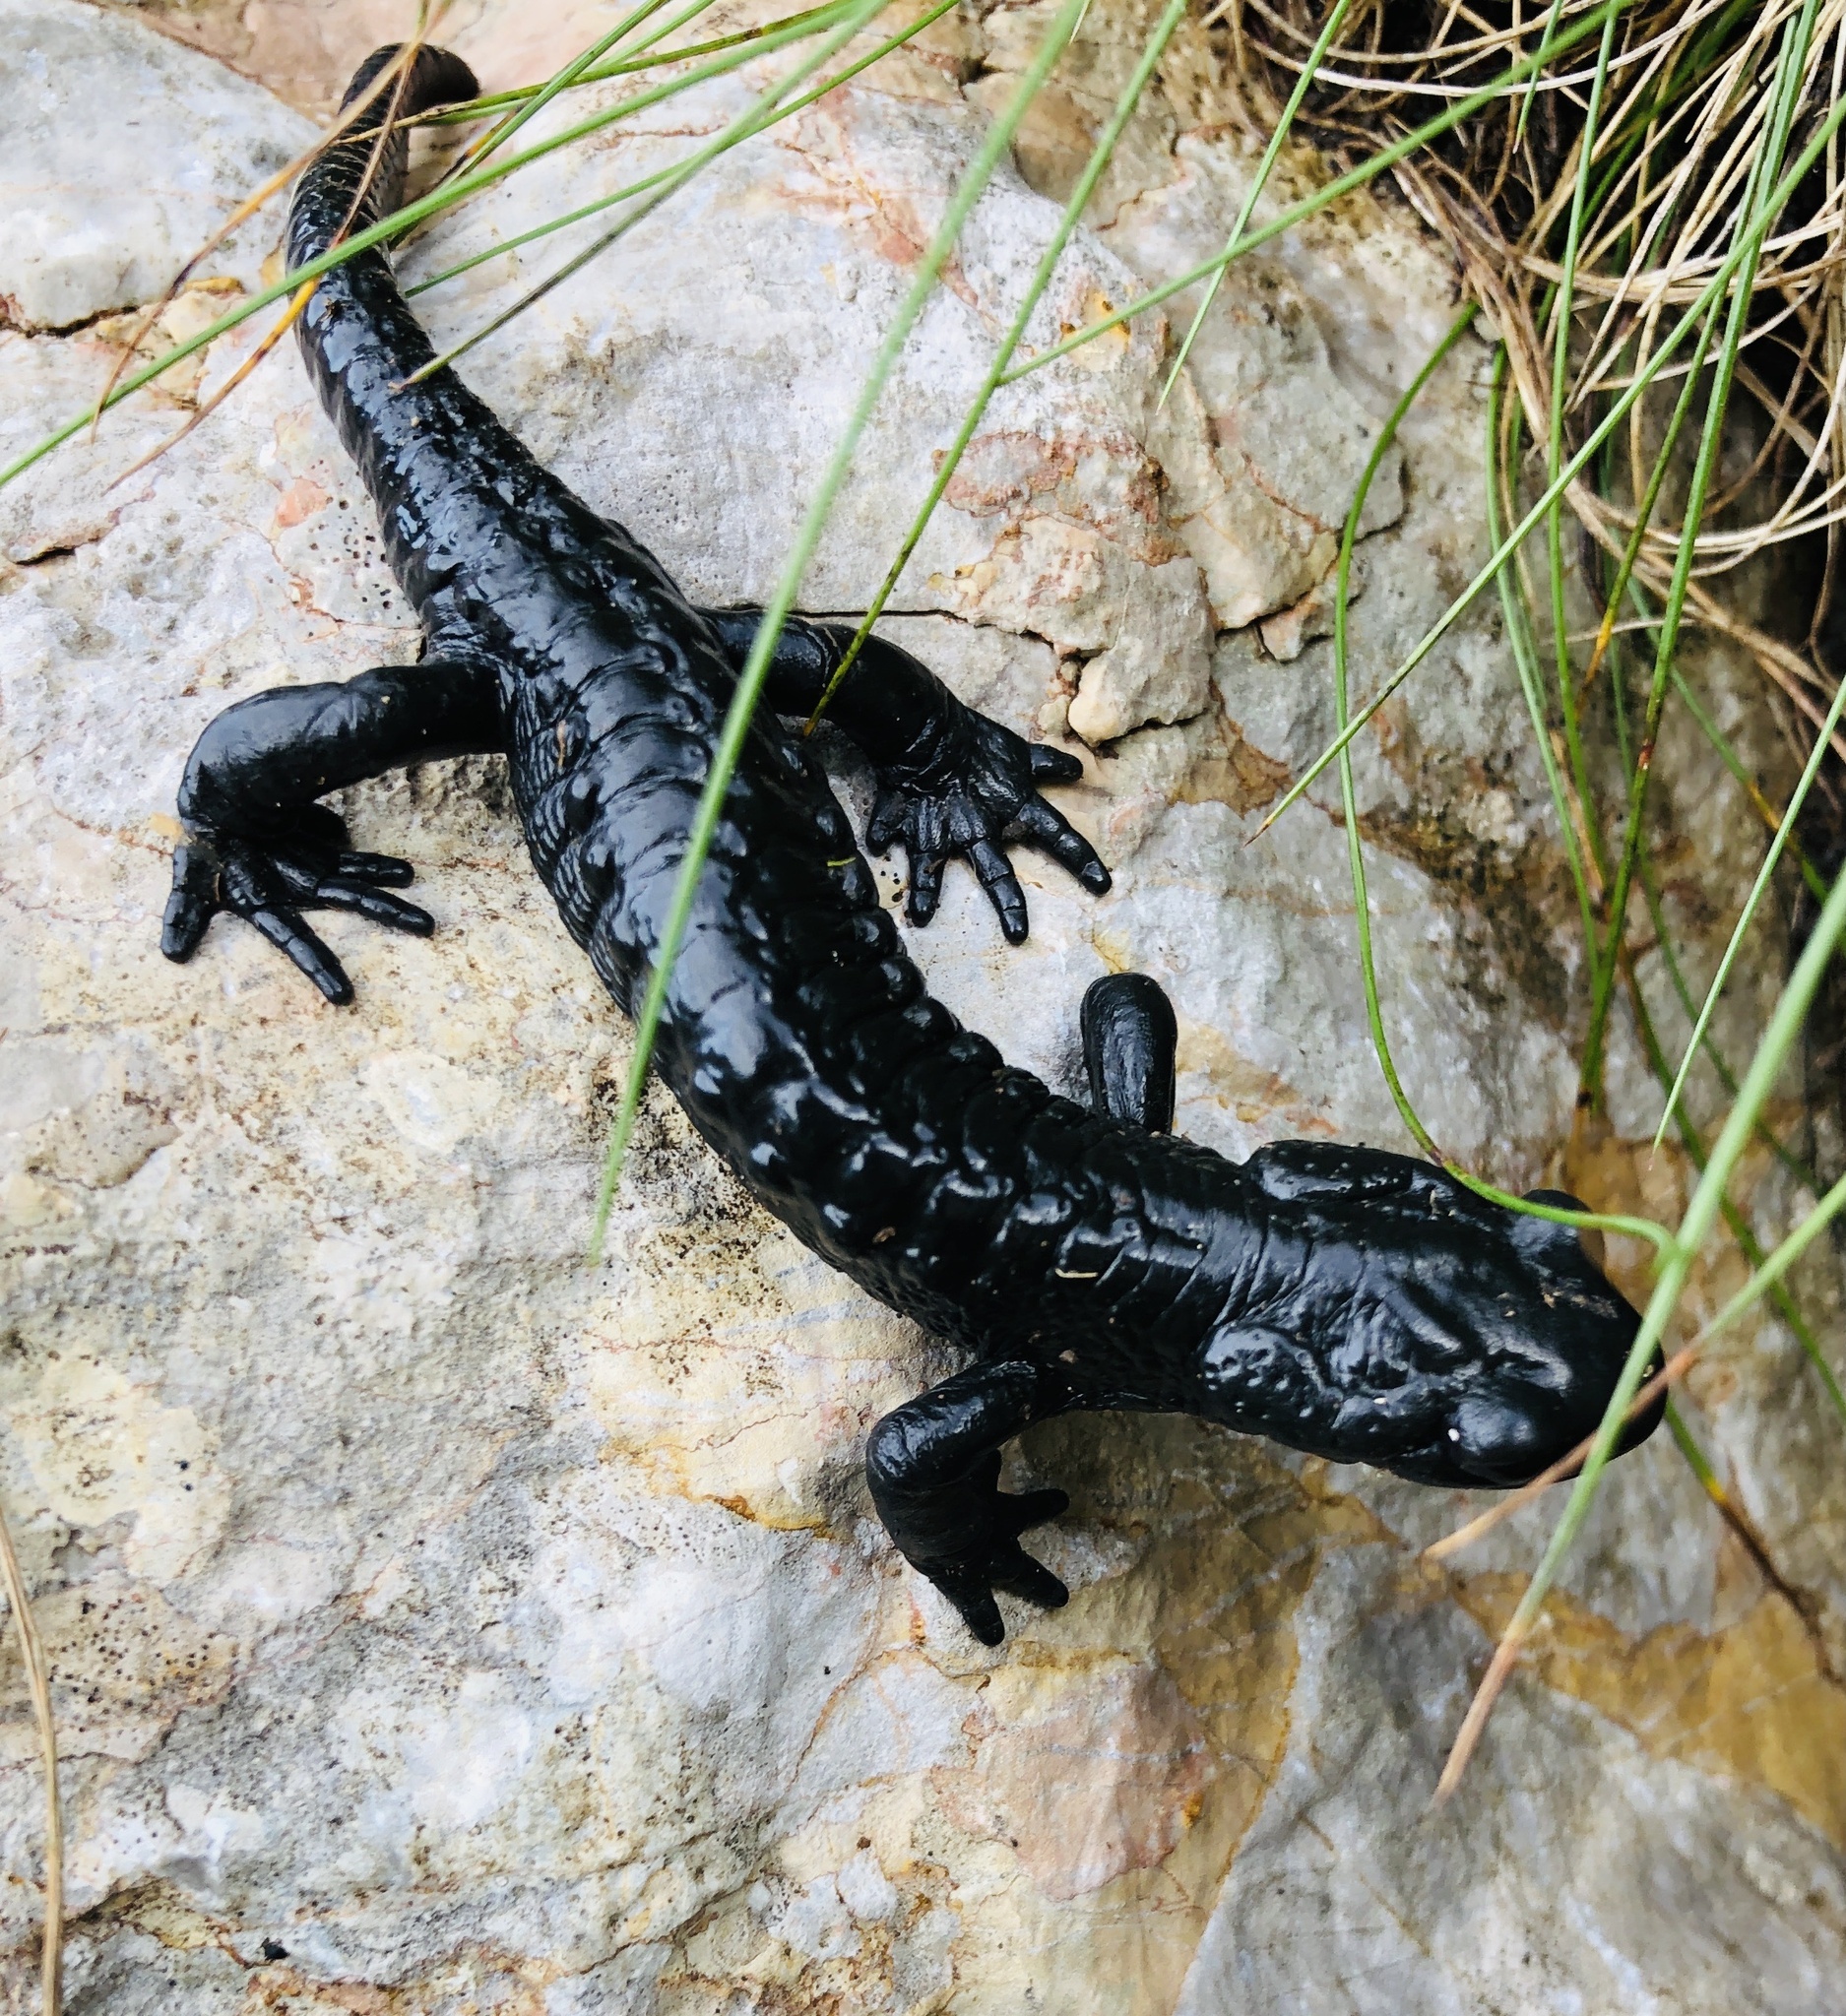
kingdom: Animalia
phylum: Chordata
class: Amphibia
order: Caudata
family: Salamandridae
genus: Salamandra
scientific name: Salamandra atra
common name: Alpine salamander
